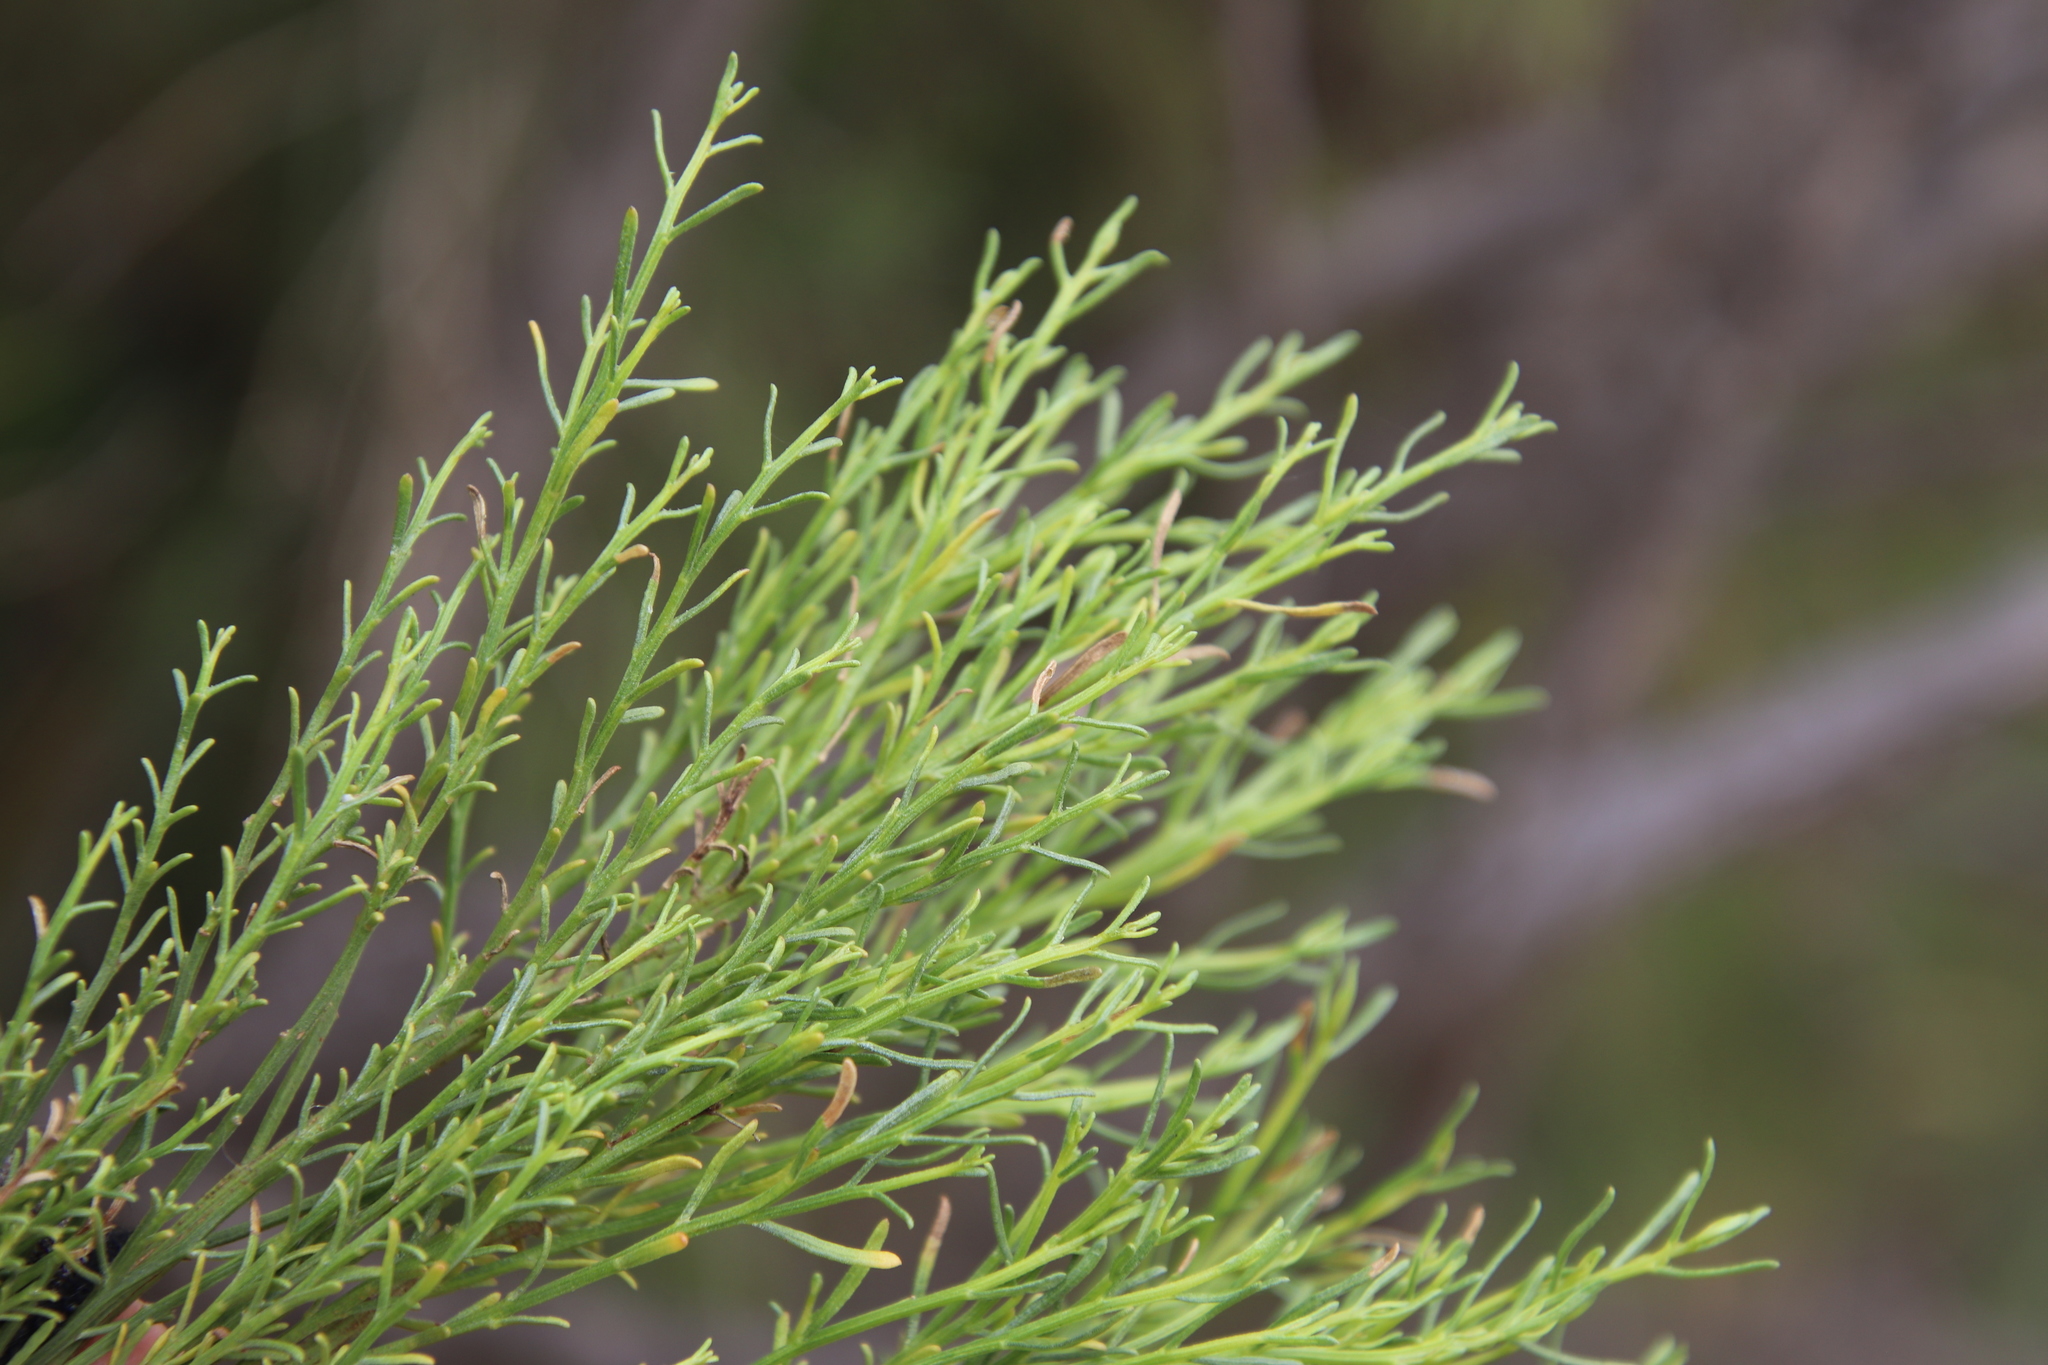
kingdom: Plantae
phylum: Tracheophyta
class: Magnoliopsida
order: Asterales
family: Asteraceae
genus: Baccharis
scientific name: Baccharis sarothroides
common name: Desert-broom
